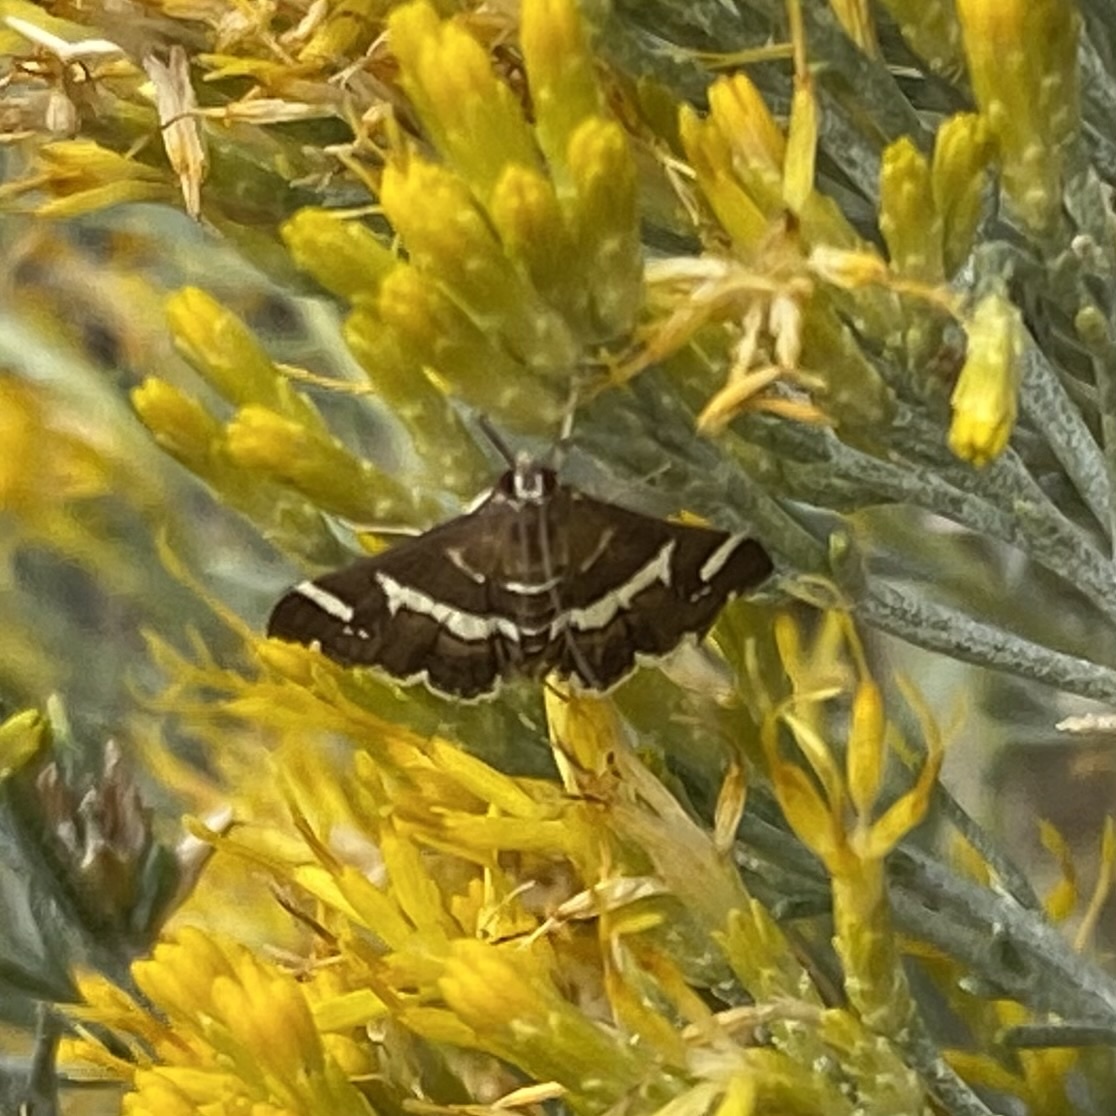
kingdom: Animalia
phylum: Arthropoda
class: Insecta
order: Lepidoptera
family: Crambidae
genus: Spoladea
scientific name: Spoladea recurvalis
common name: Beet webworm moth
